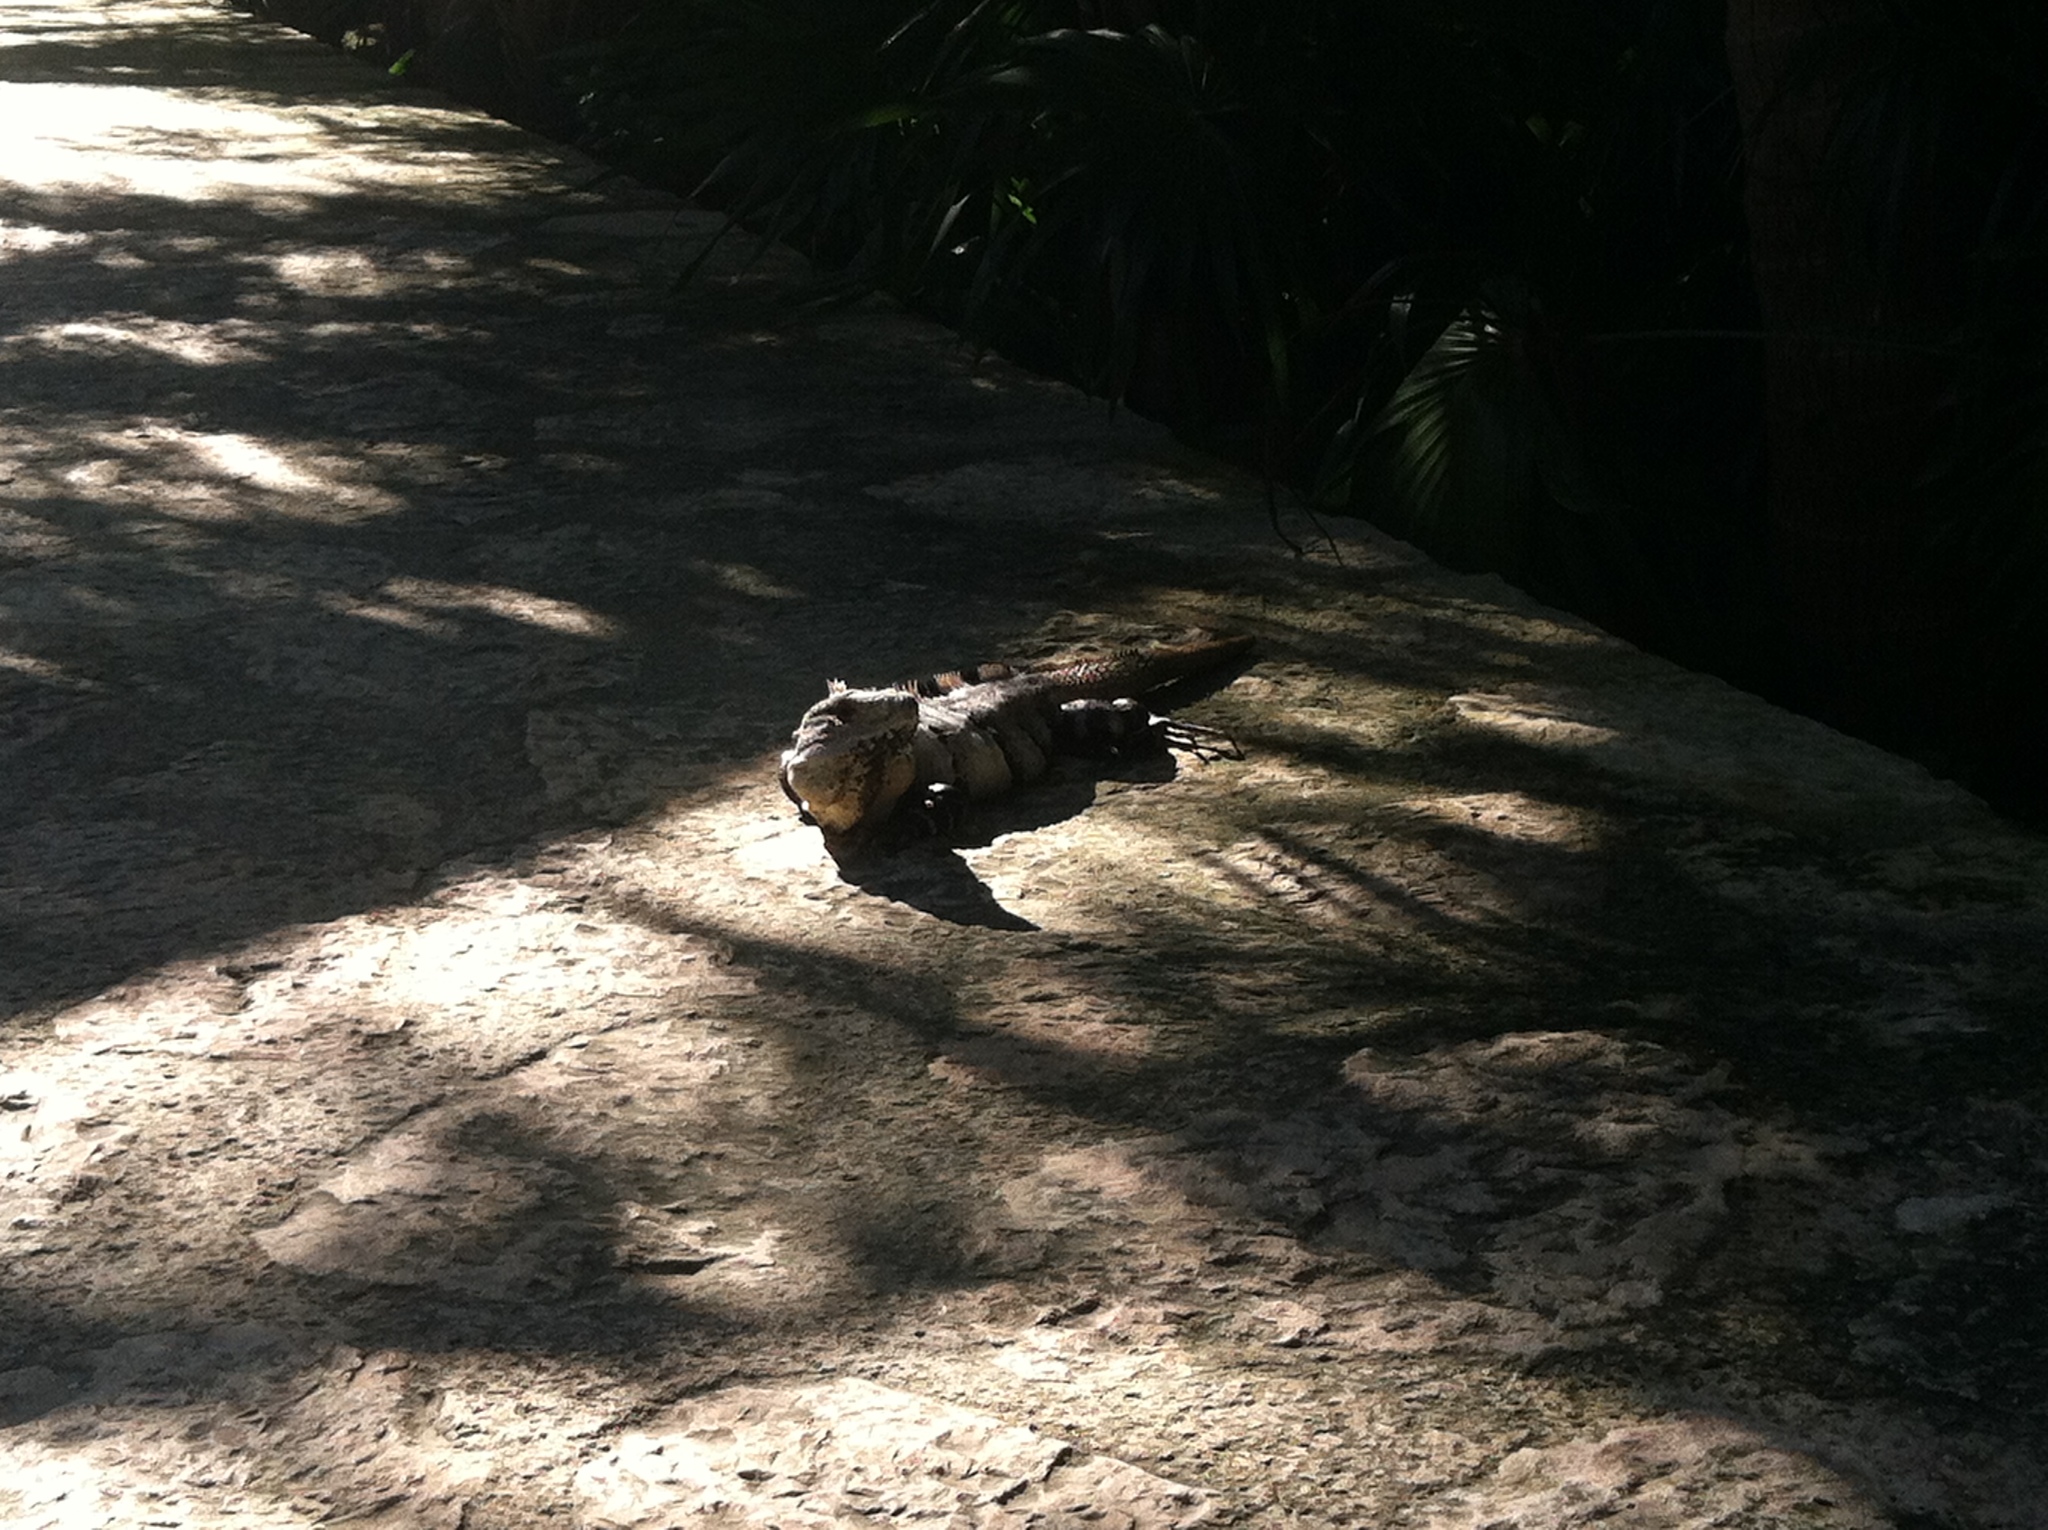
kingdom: Animalia
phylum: Chordata
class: Squamata
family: Iguanidae
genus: Ctenosaura
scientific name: Ctenosaura similis
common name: Black spiny-tailed iguana
